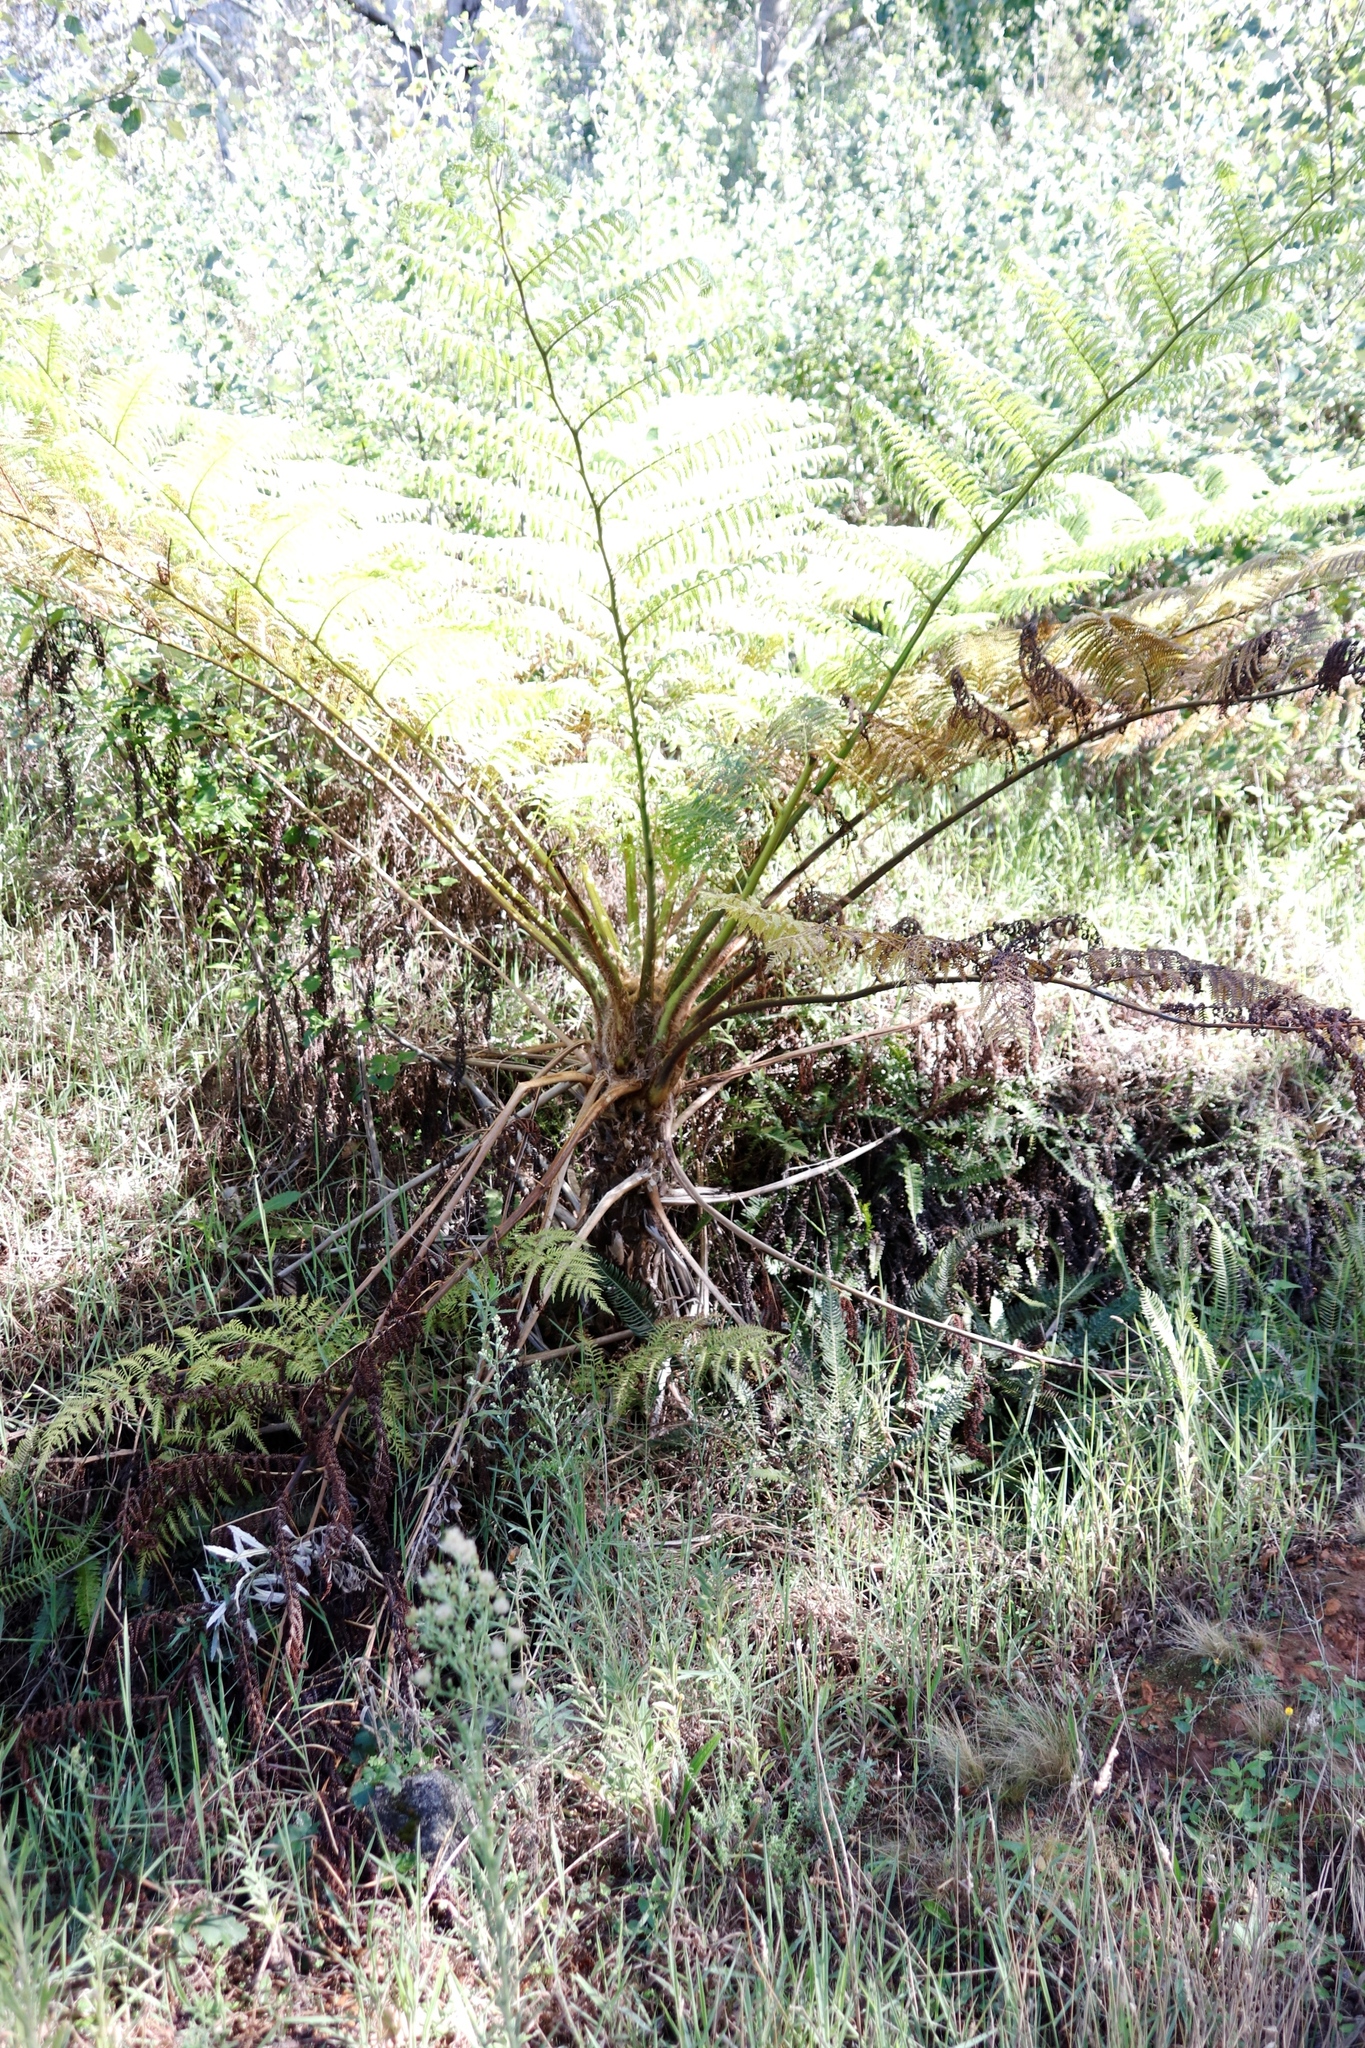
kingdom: Plantae
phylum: Tracheophyta
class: Polypodiopsida
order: Cyatheales
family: Cyatheaceae
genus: Sphaeropteris
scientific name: Sphaeropteris cooperi
